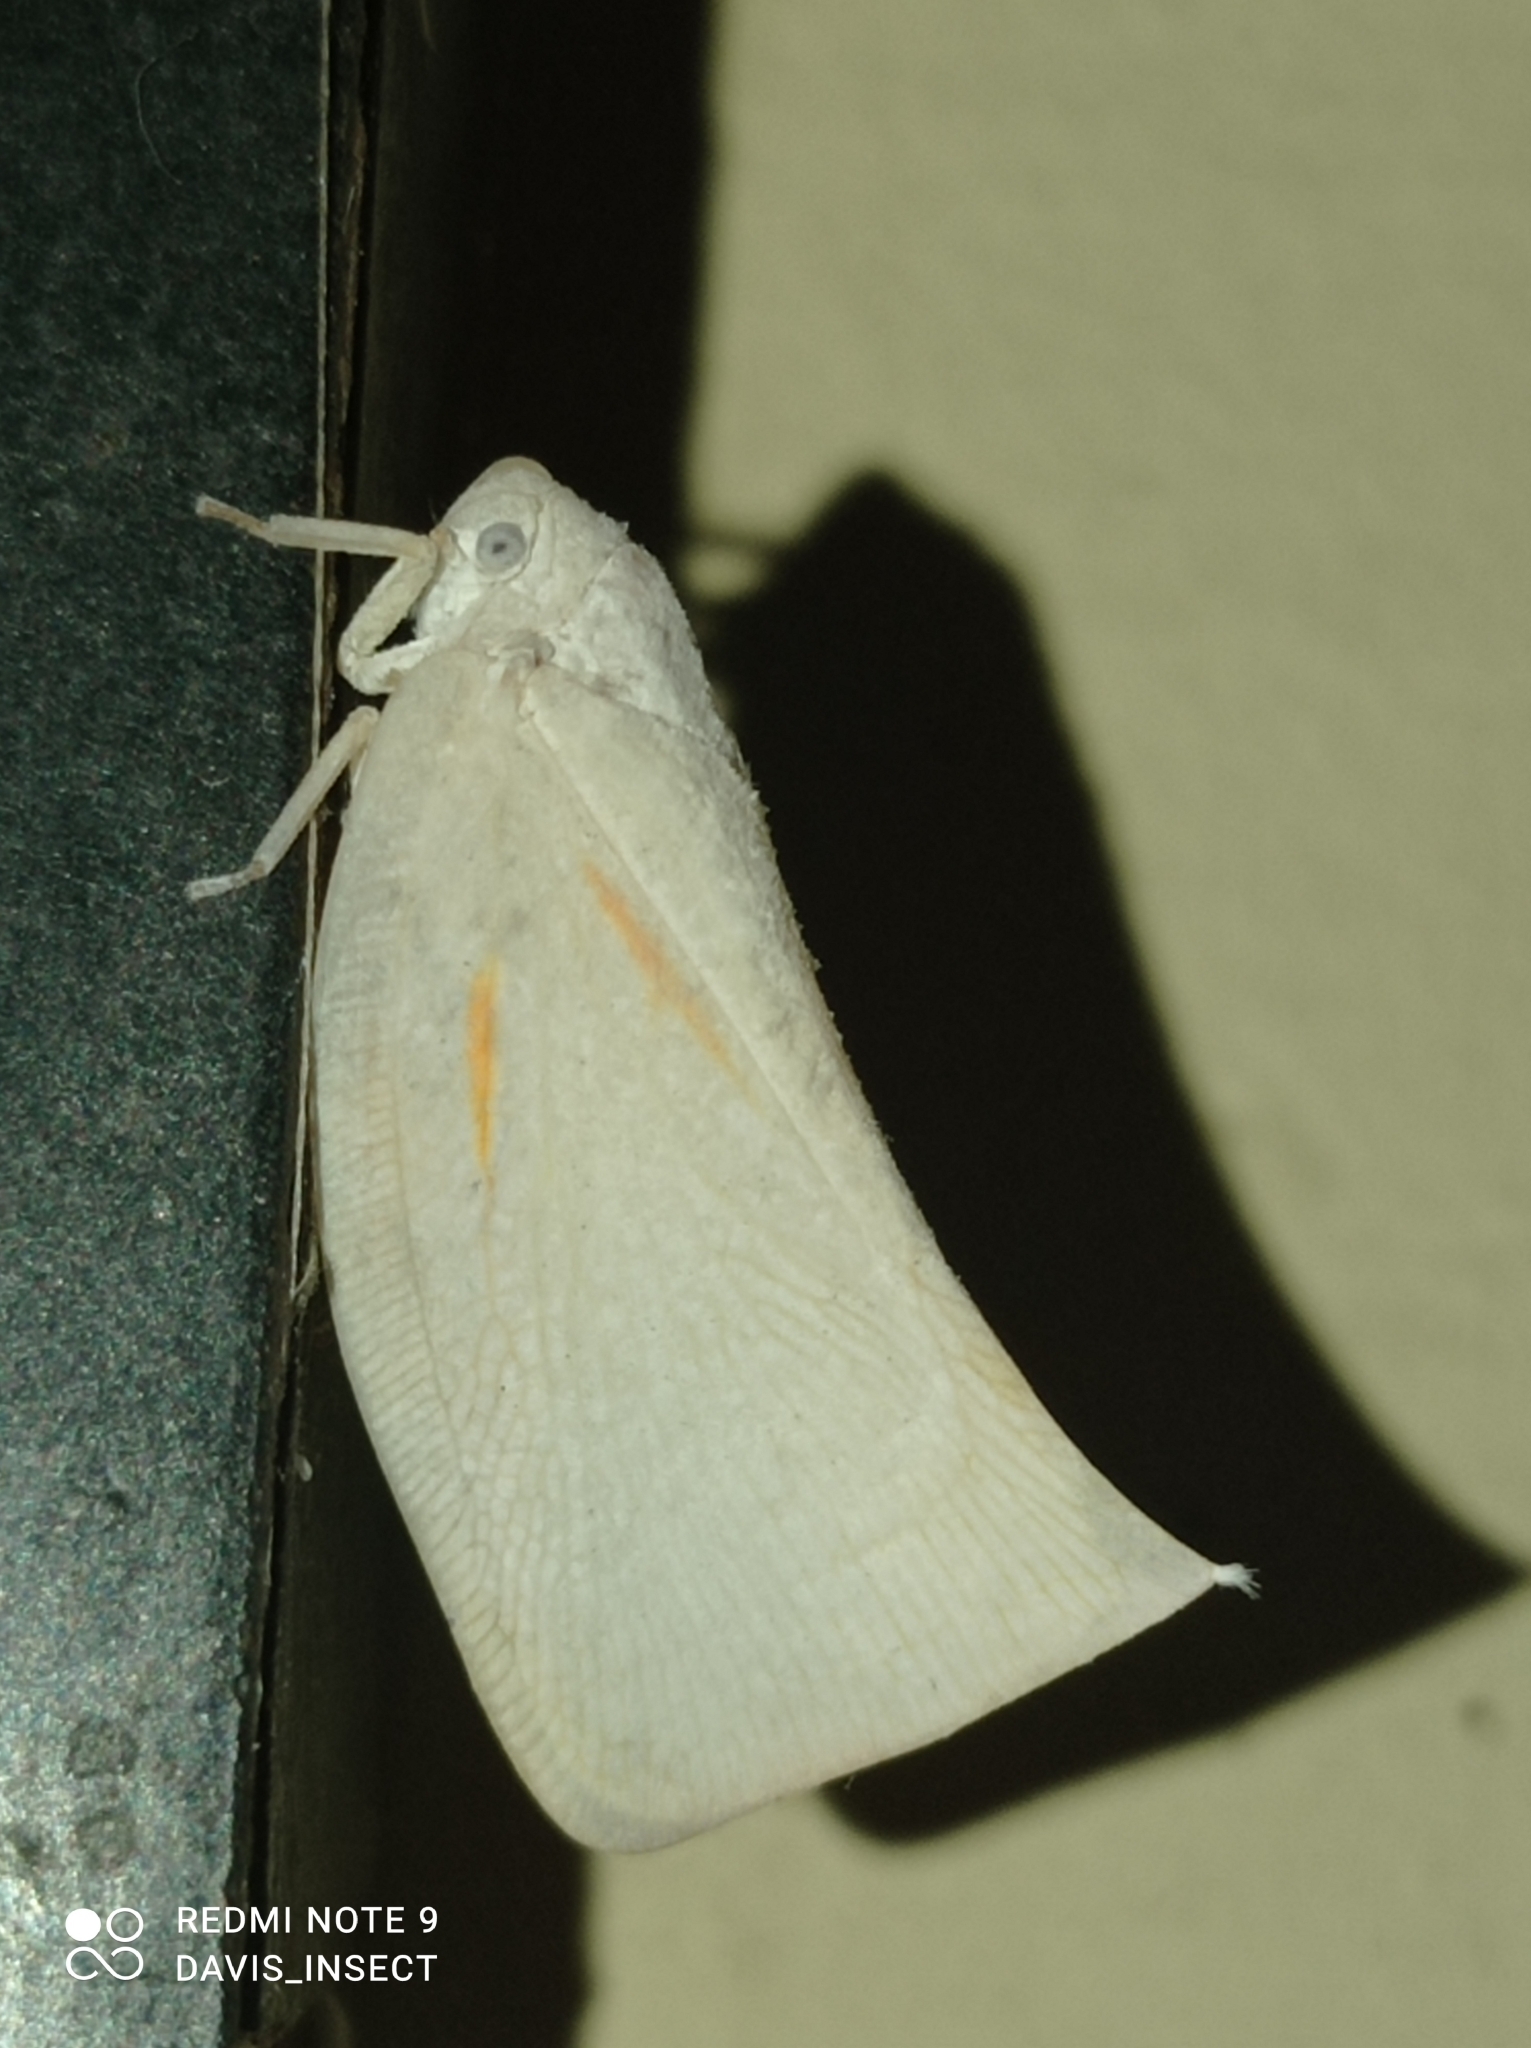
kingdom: Animalia
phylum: Arthropoda
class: Insecta
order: Hemiptera
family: Flatidae
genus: Lawana
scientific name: Lawana candida
